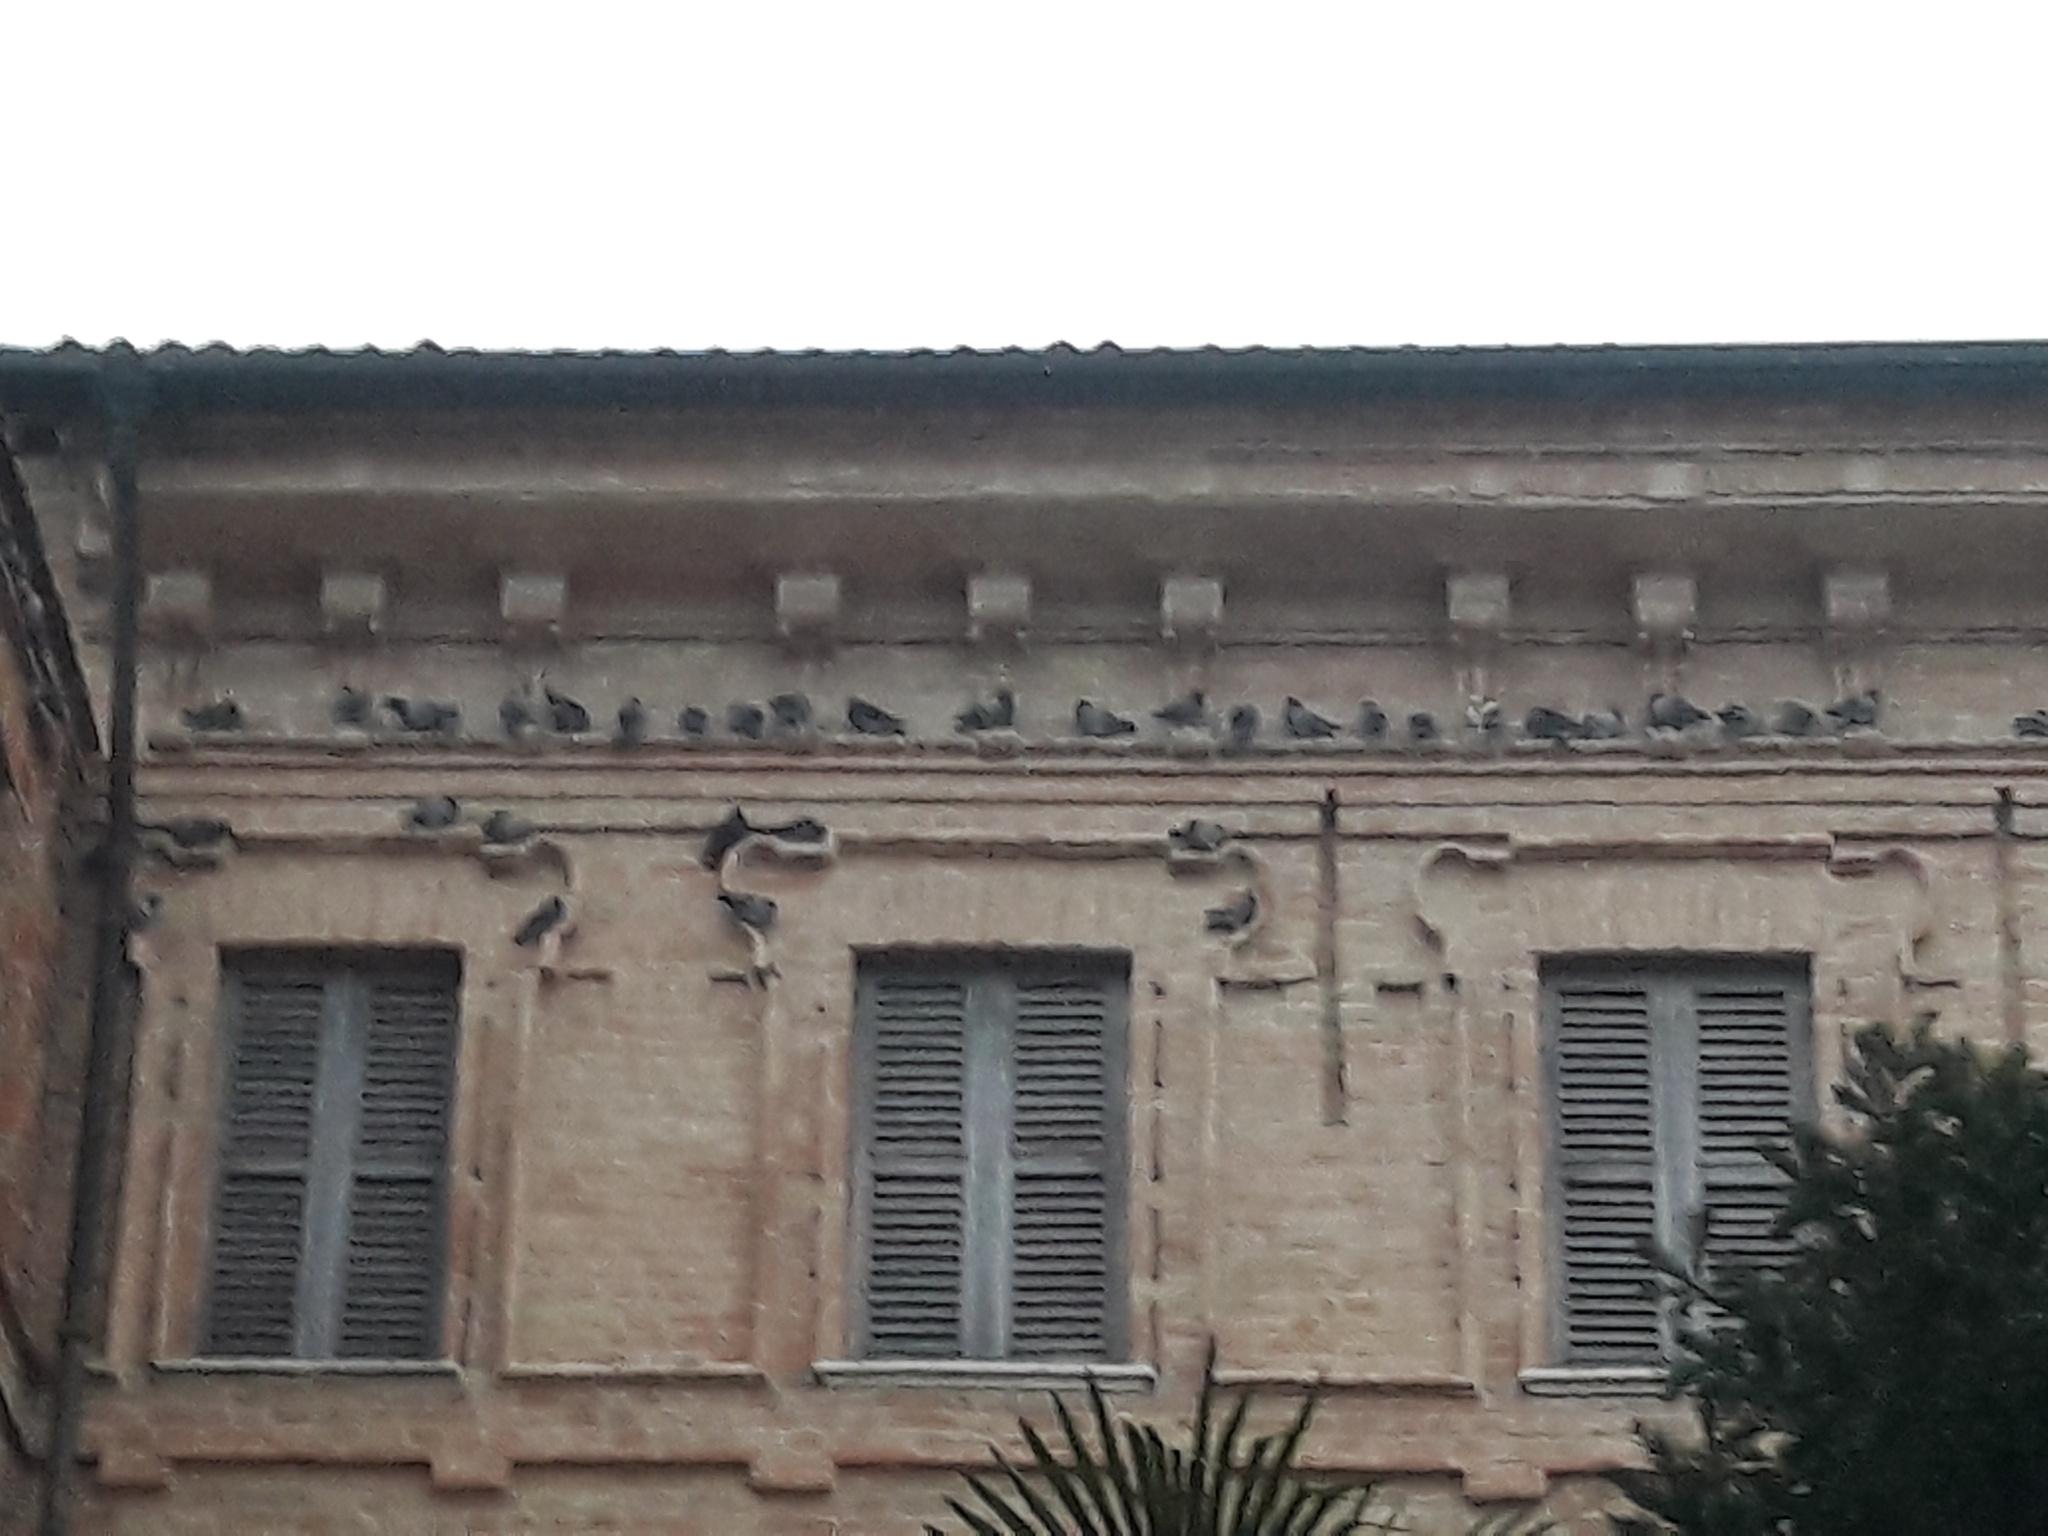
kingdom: Animalia
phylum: Chordata
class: Aves
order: Columbiformes
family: Columbidae
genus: Columba
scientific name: Columba livia
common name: Rock pigeon
